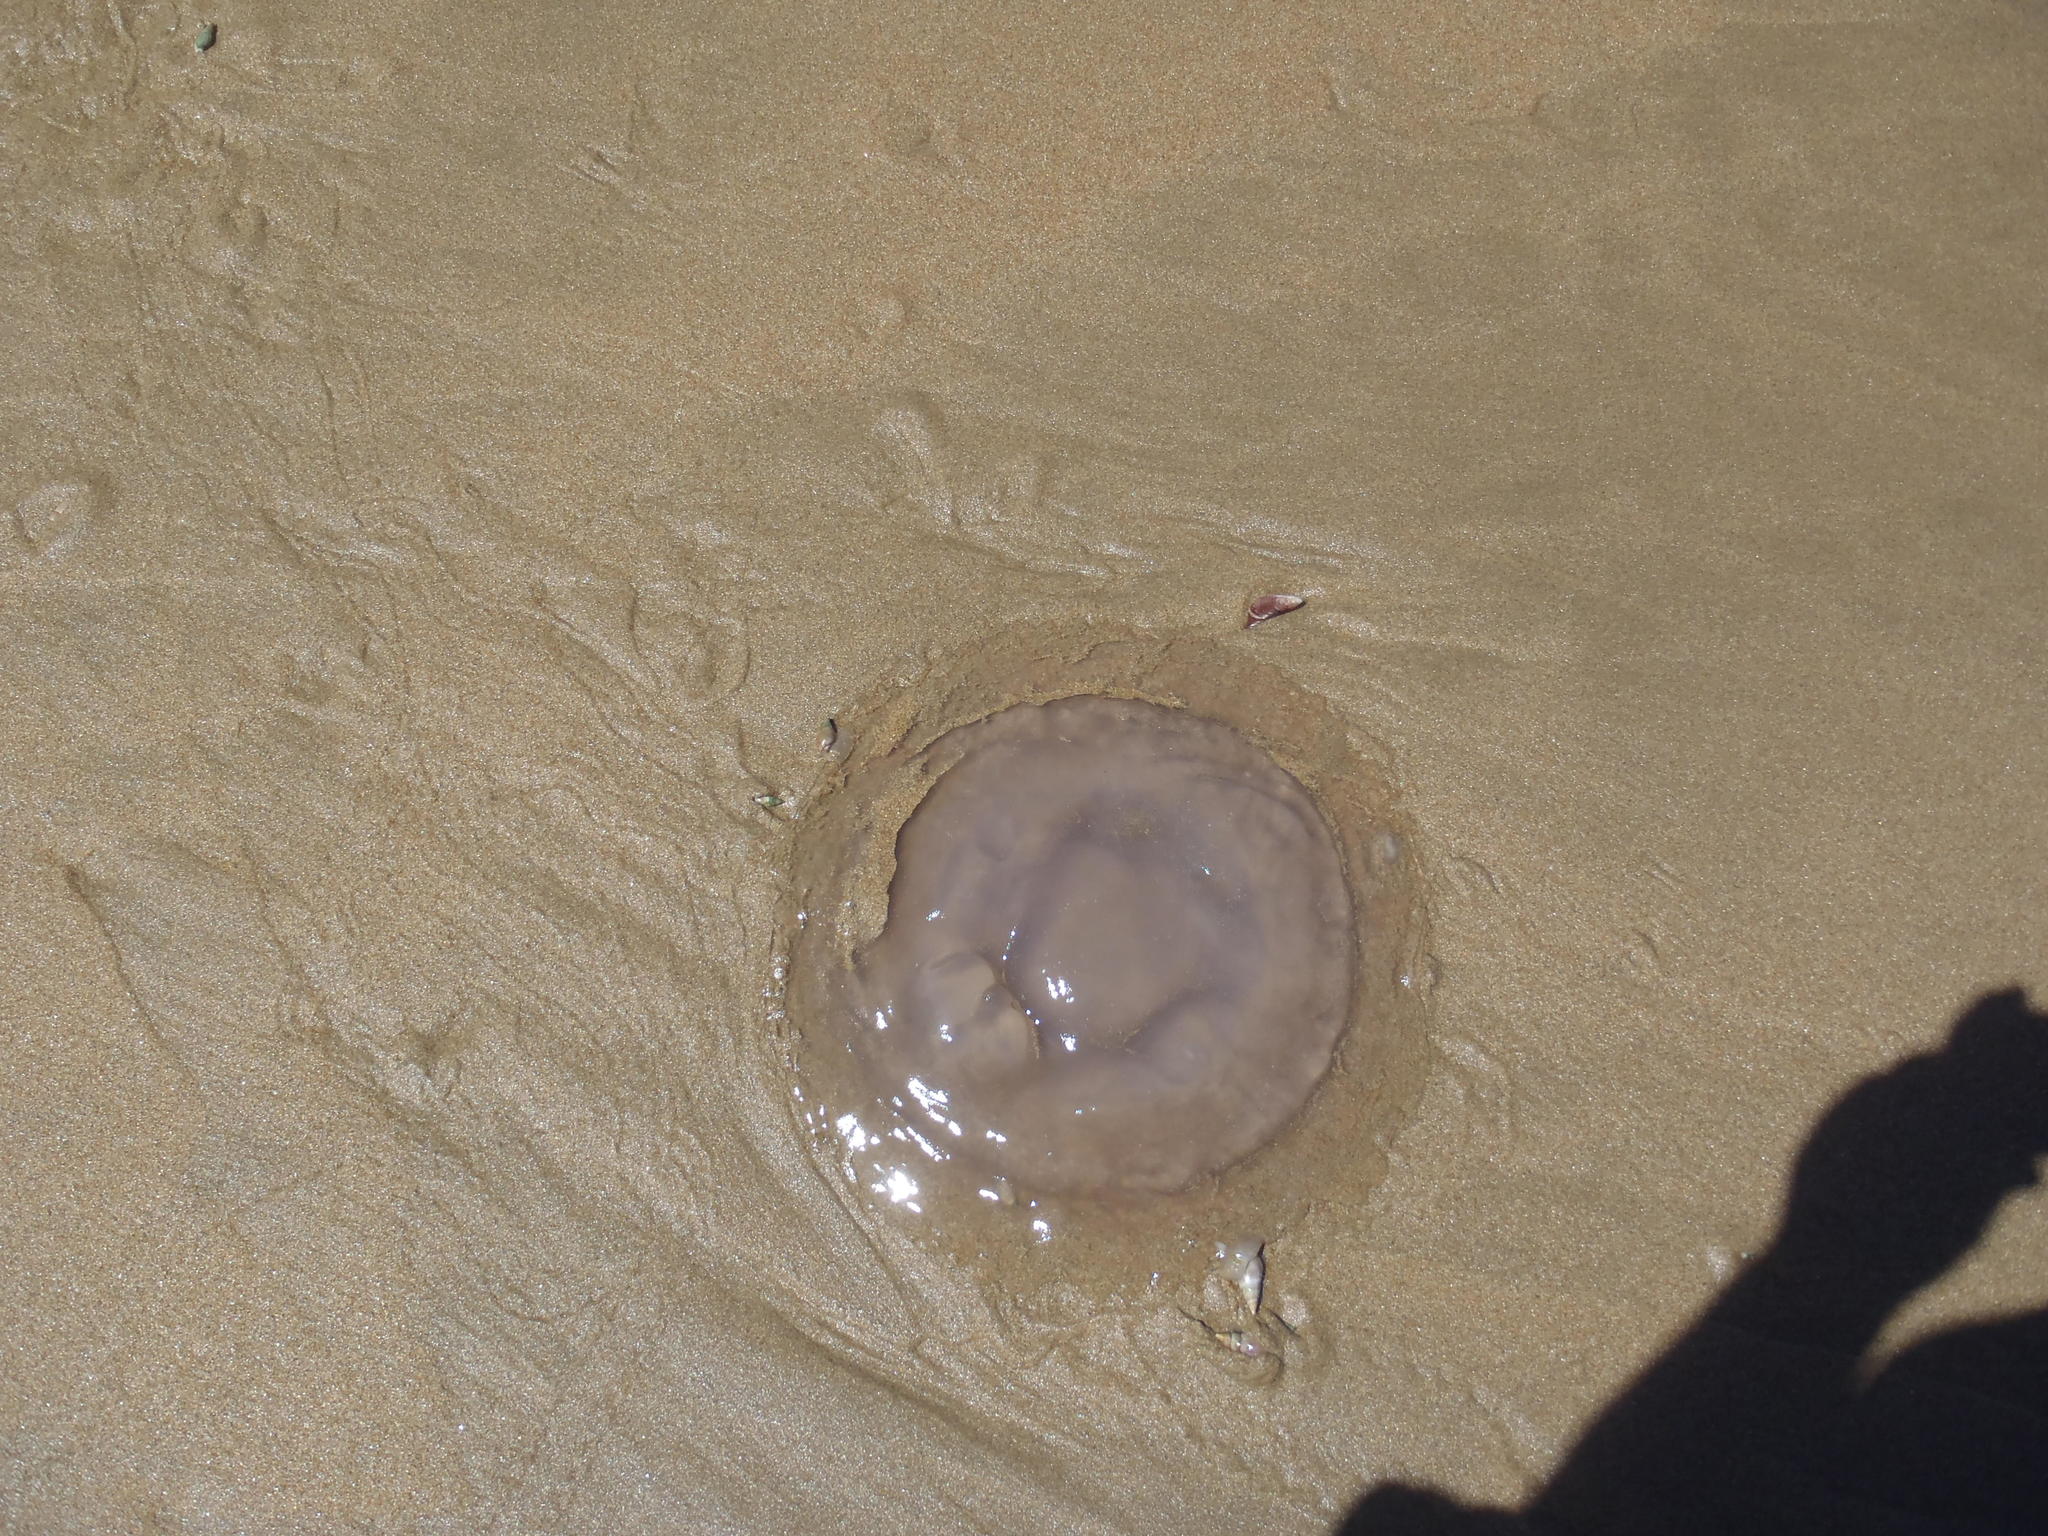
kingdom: Animalia
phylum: Cnidaria
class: Scyphozoa
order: Rhizostomeae
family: Rhizostomatidae
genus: Eupilema
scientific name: Eupilema inexpectata
